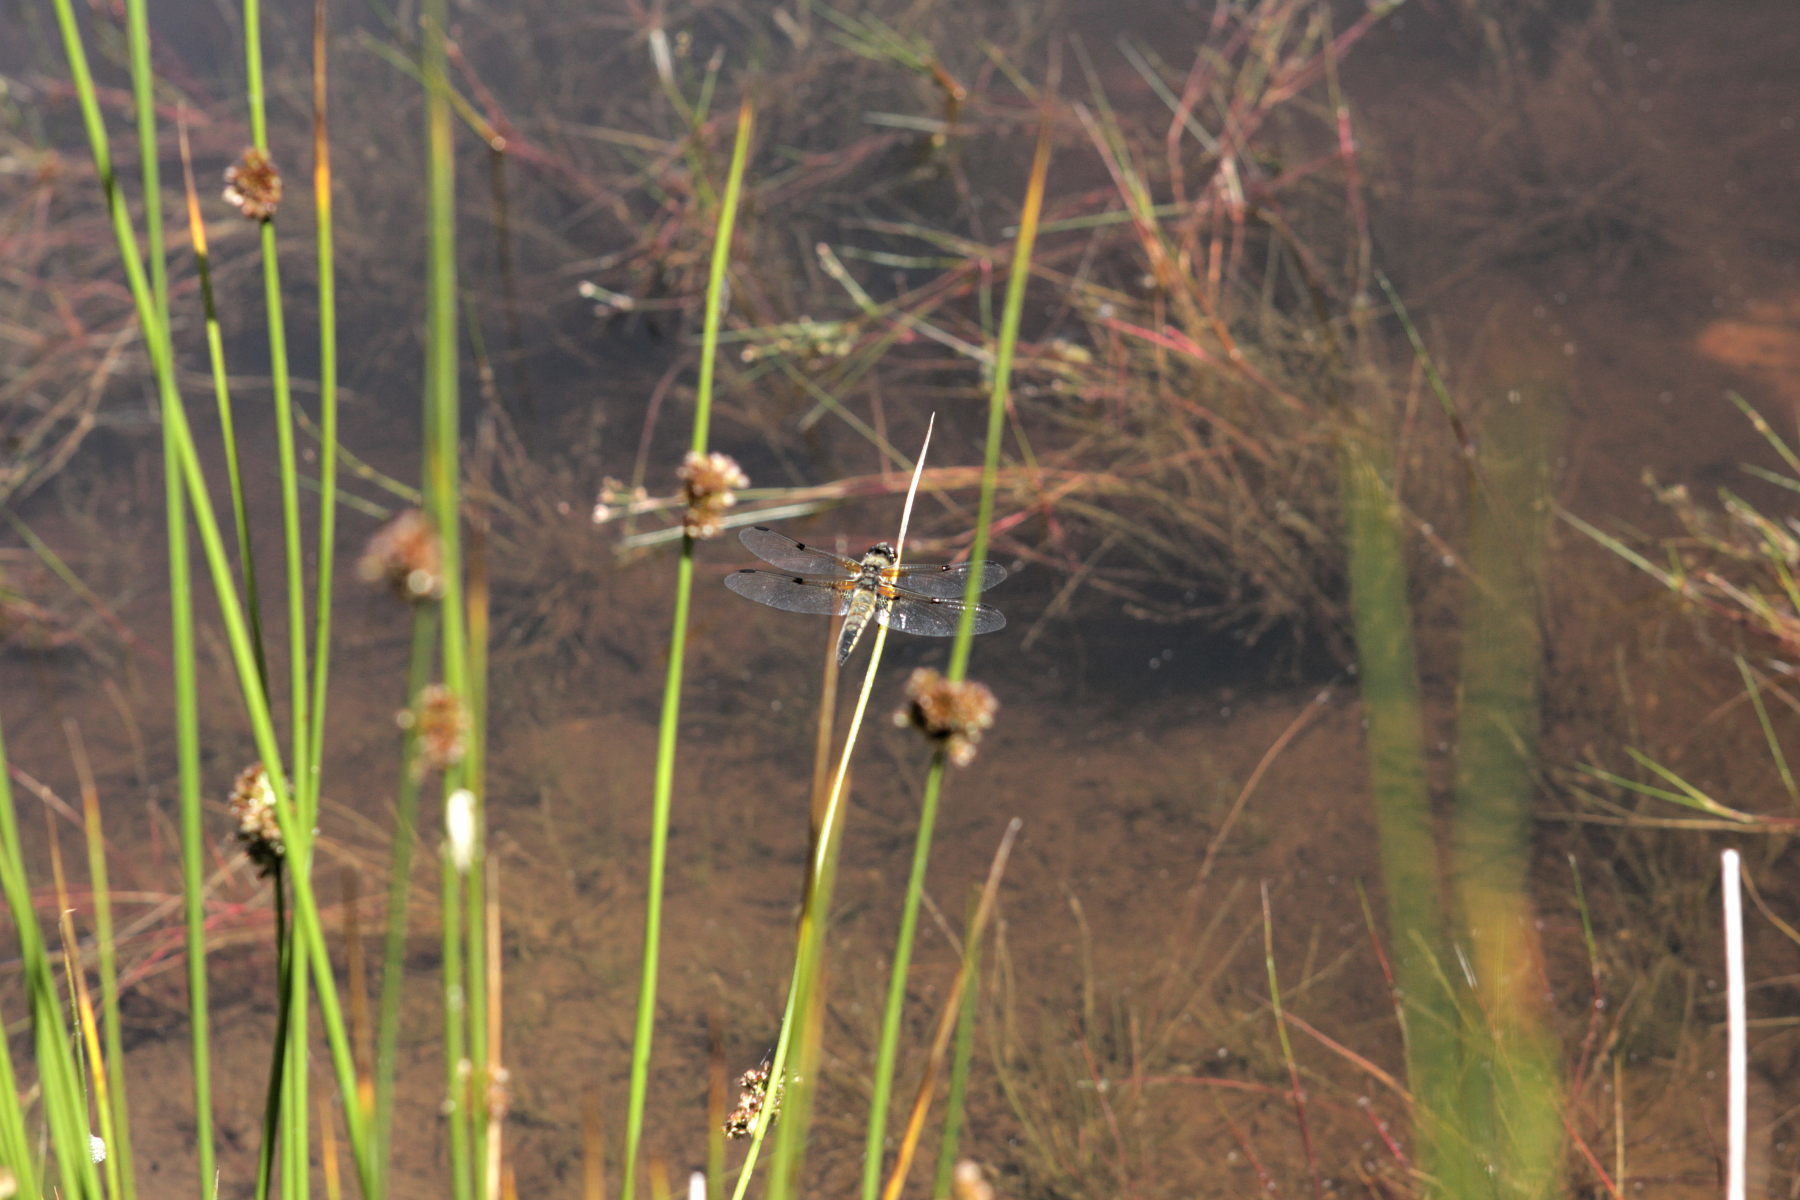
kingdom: Animalia
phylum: Arthropoda
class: Insecta
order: Odonata
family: Libellulidae
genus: Libellula
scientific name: Libellula quadrimaculata
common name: Four-spotted chaser
